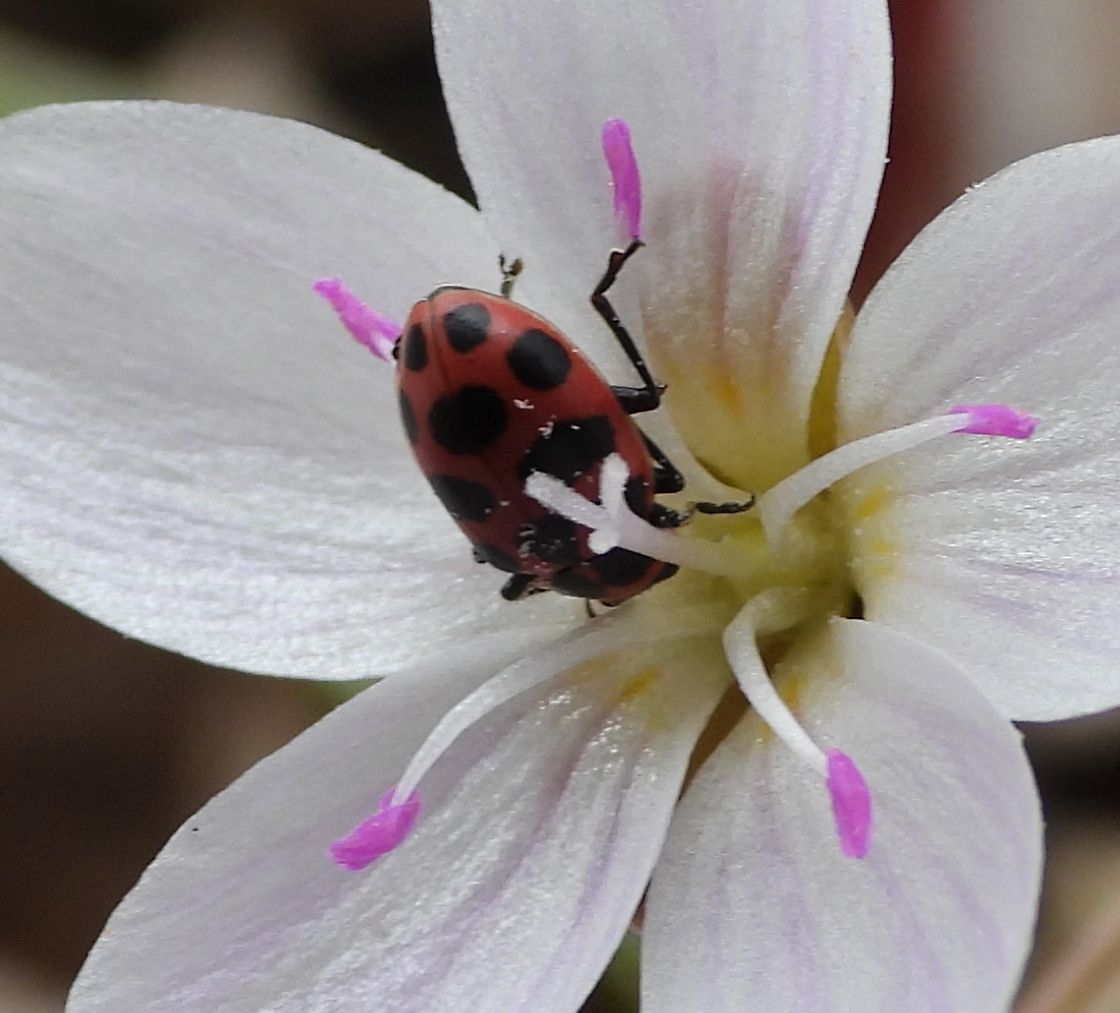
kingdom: Animalia
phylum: Arthropoda
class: Insecta
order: Coleoptera
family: Coccinellidae
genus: Coleomegilla
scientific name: Coleomegilla maculata
